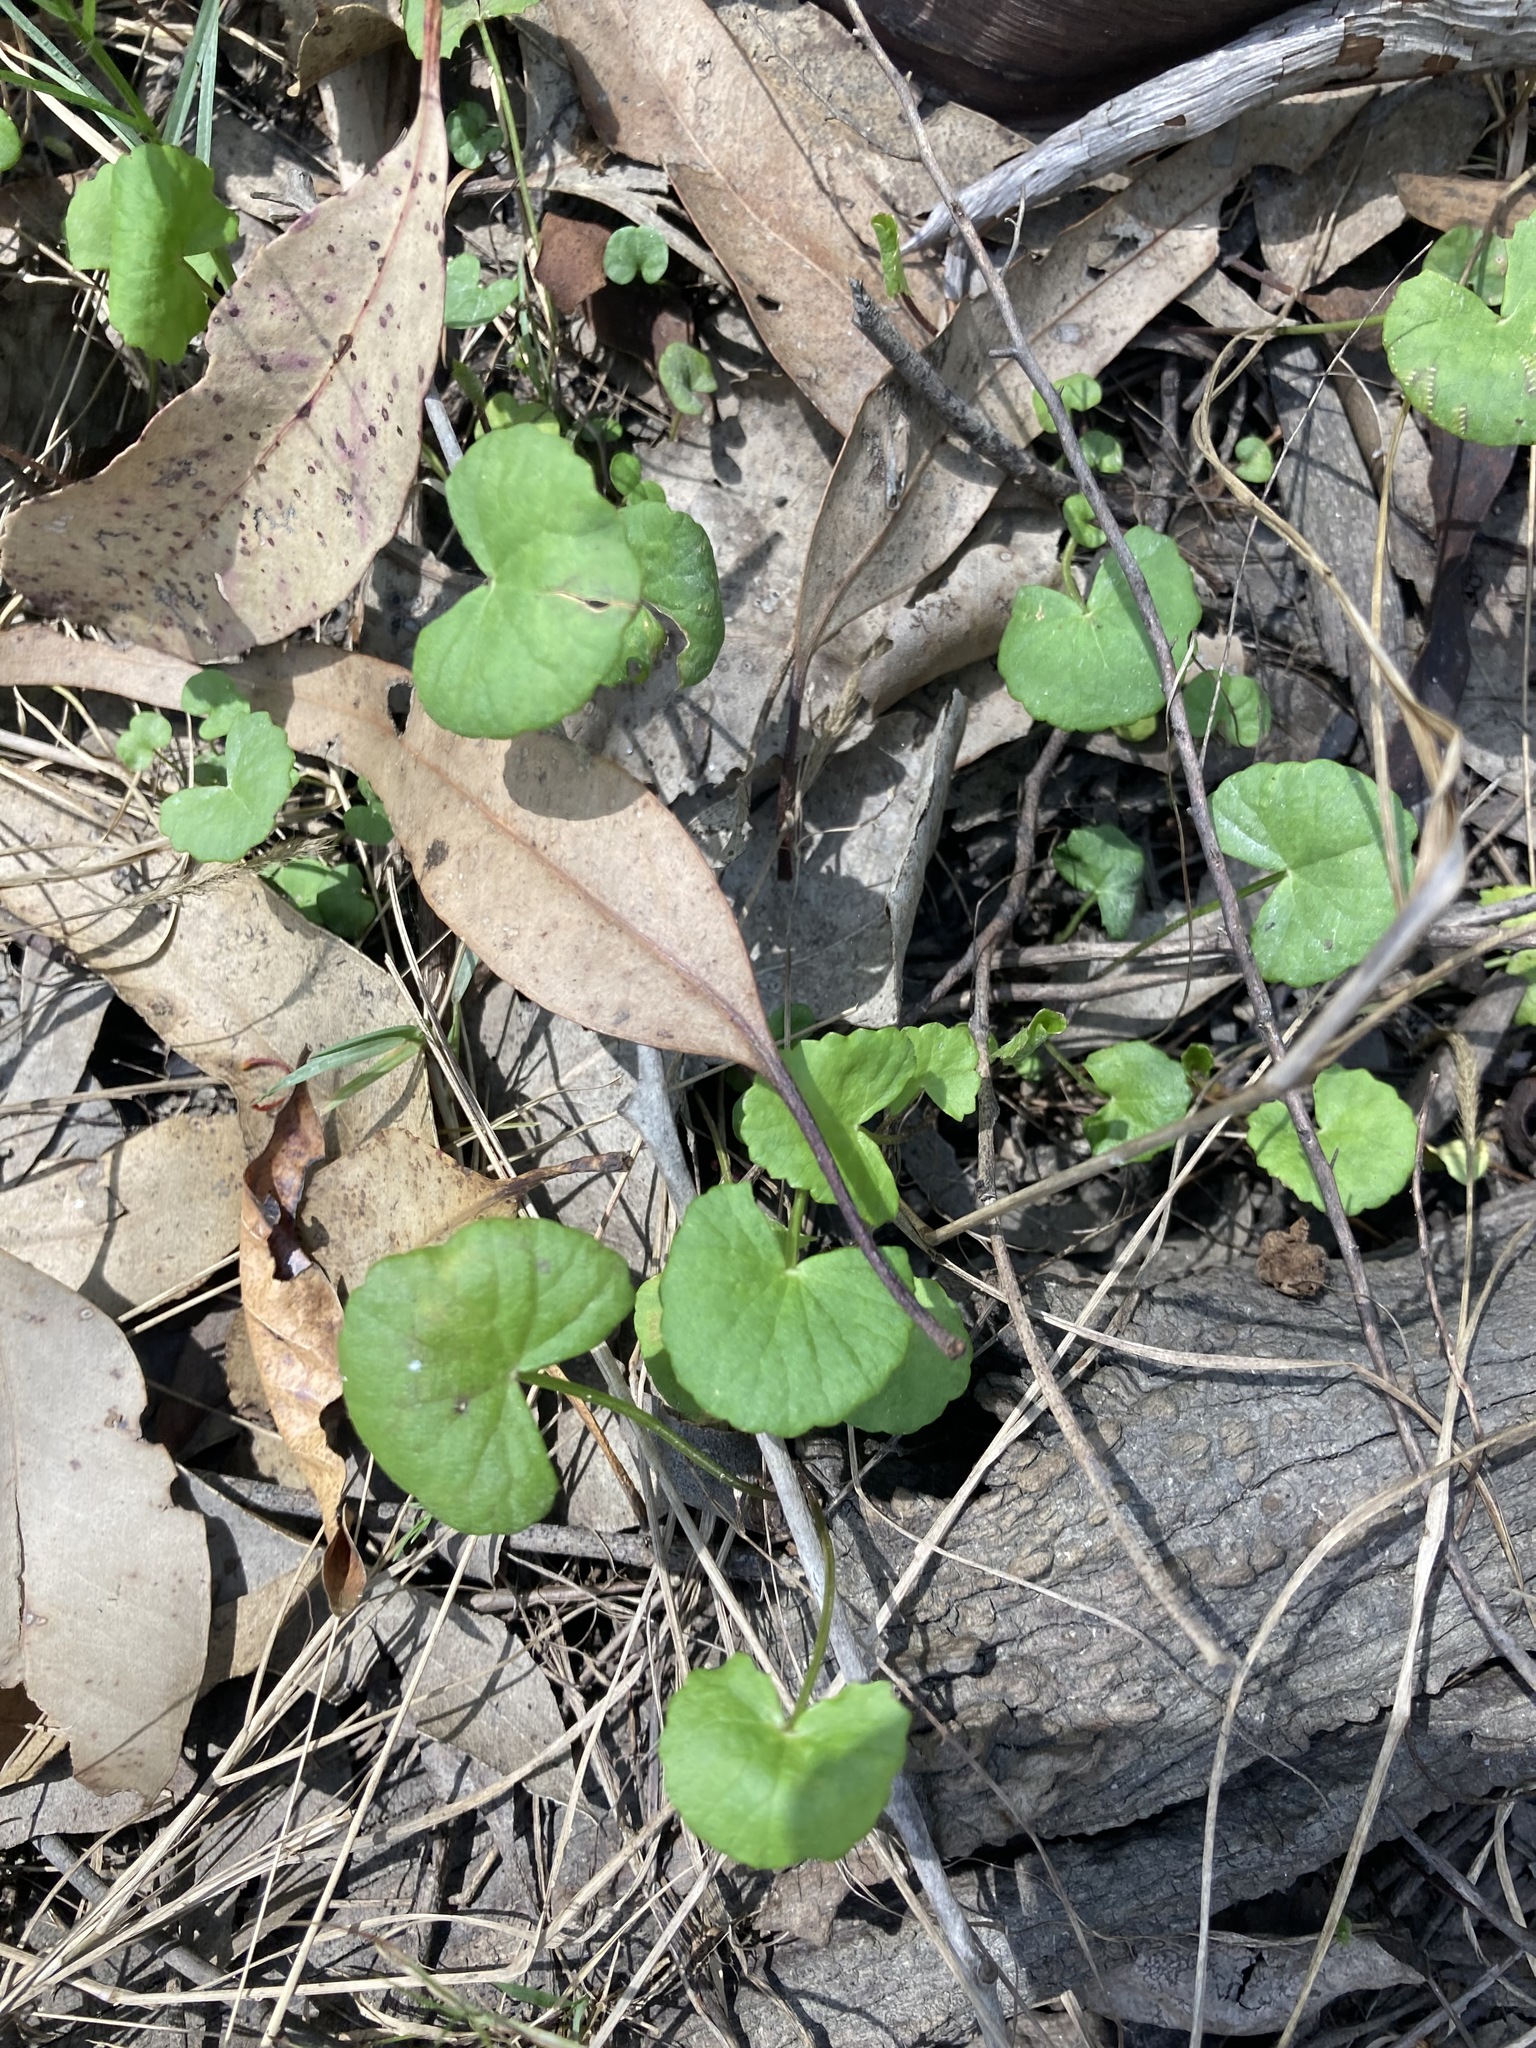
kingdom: Plantae
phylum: Tracheophyta
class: Magnoliopsida
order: Apiales
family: Apiaceae
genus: Centella
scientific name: Centella asiatica
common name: Spadeleaf
